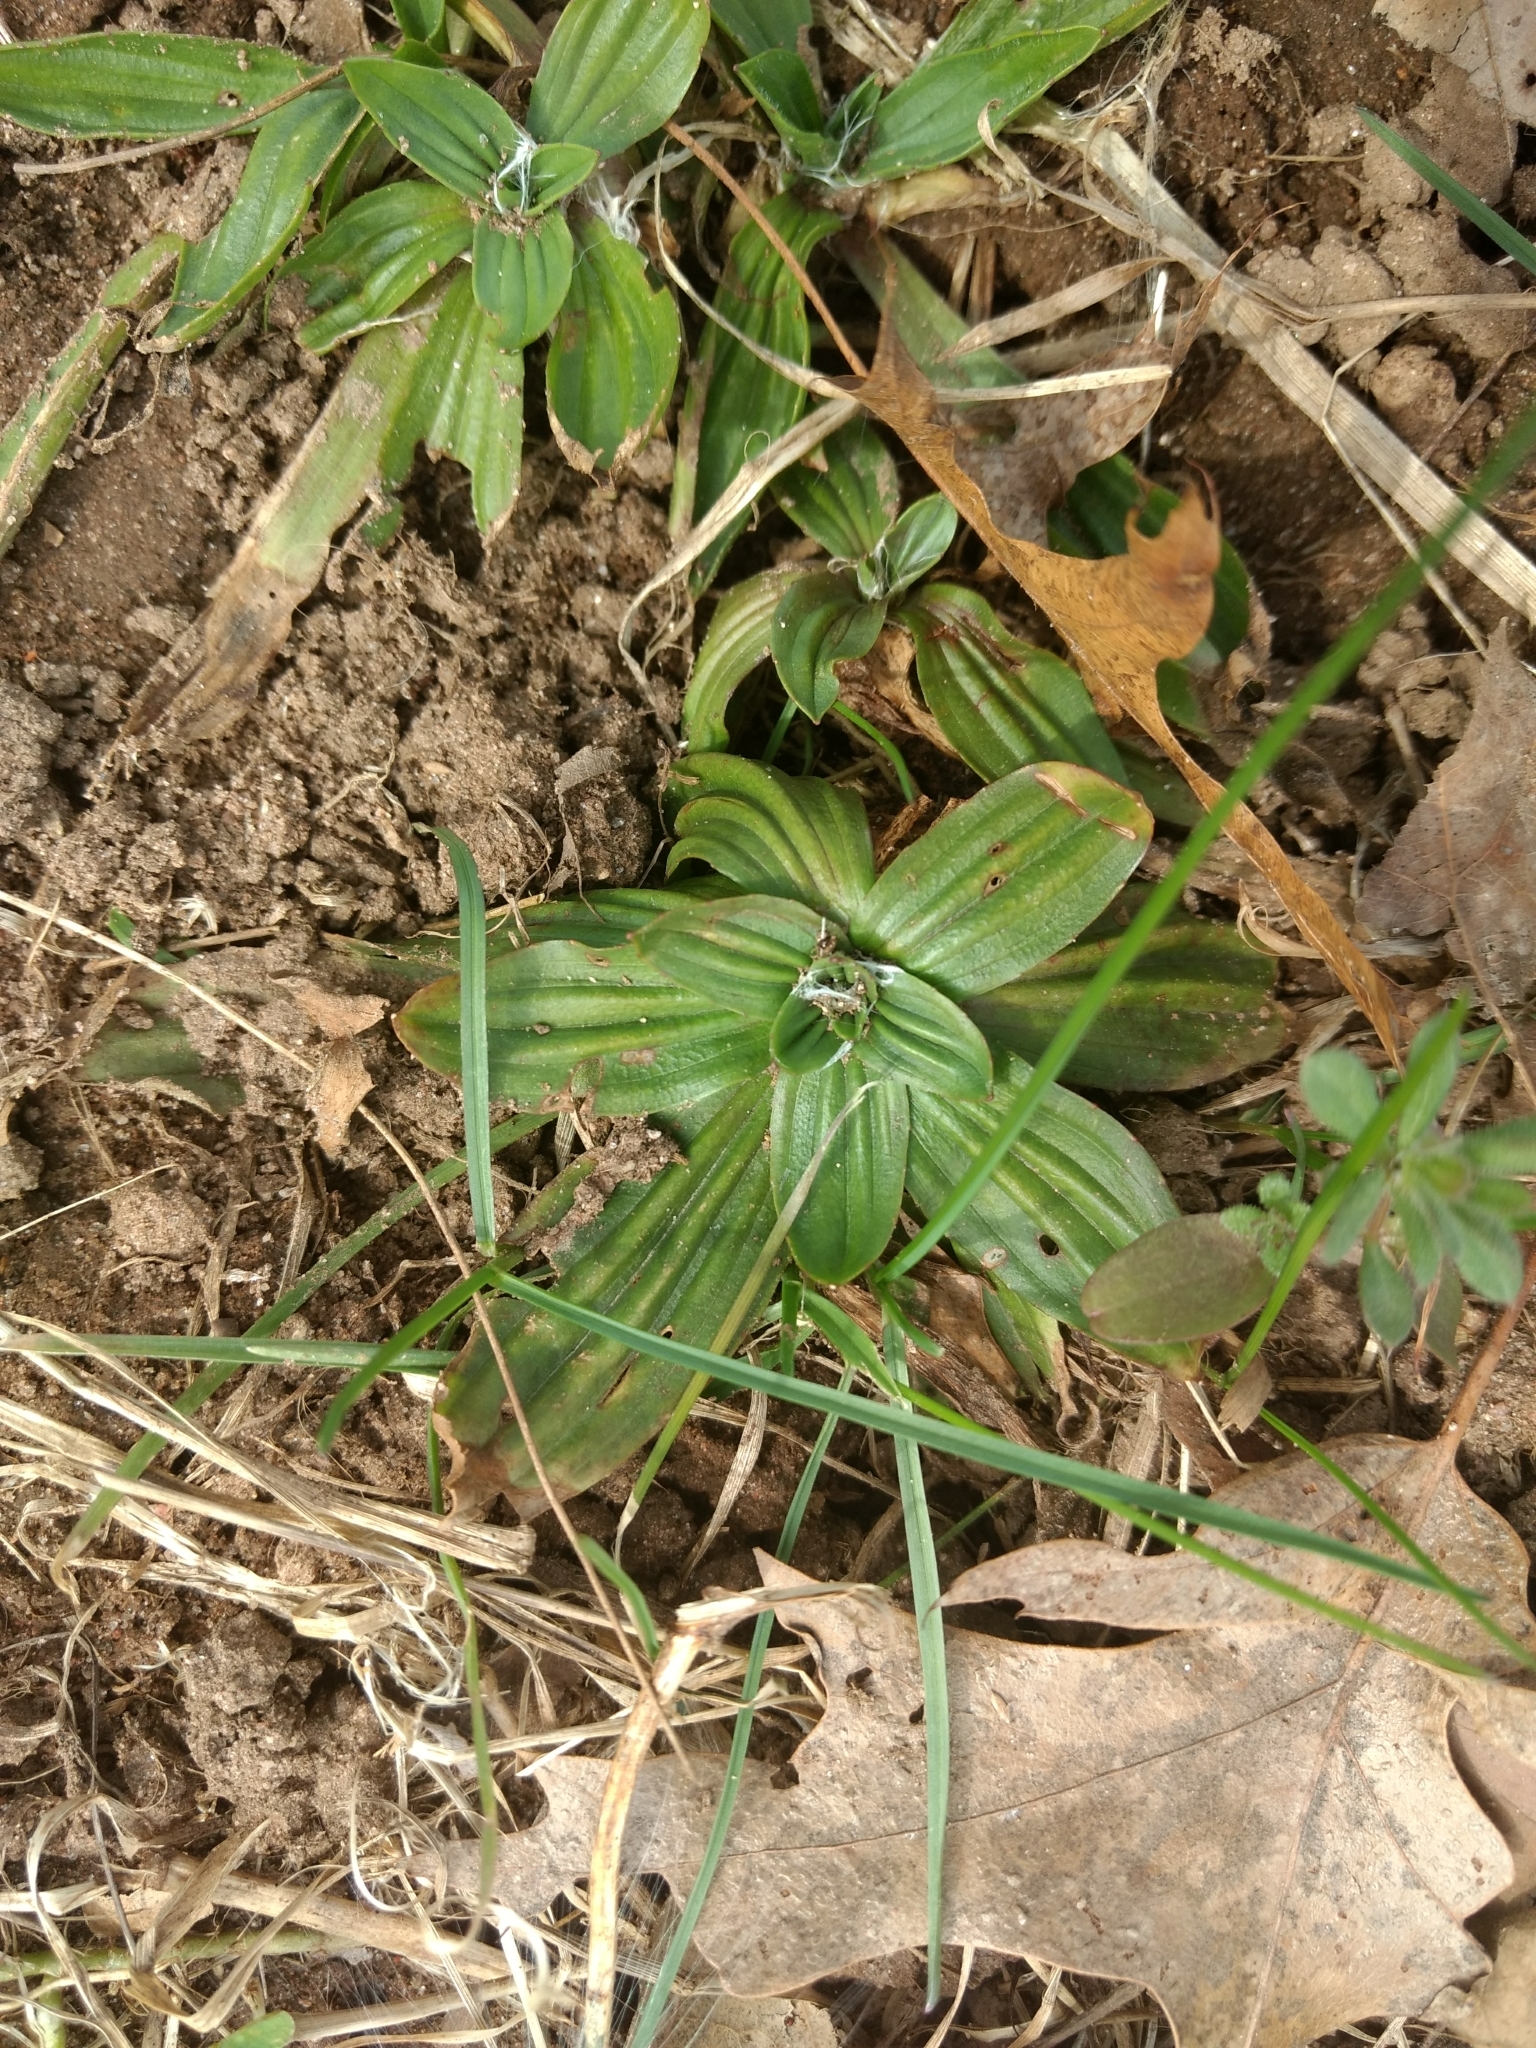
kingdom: Plantae
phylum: Tracheophyta
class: Magnoliopsida
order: Lamiales
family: Plantaginaceae
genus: Plantago
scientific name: Plantago lanceolata
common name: Ribwort plantain
